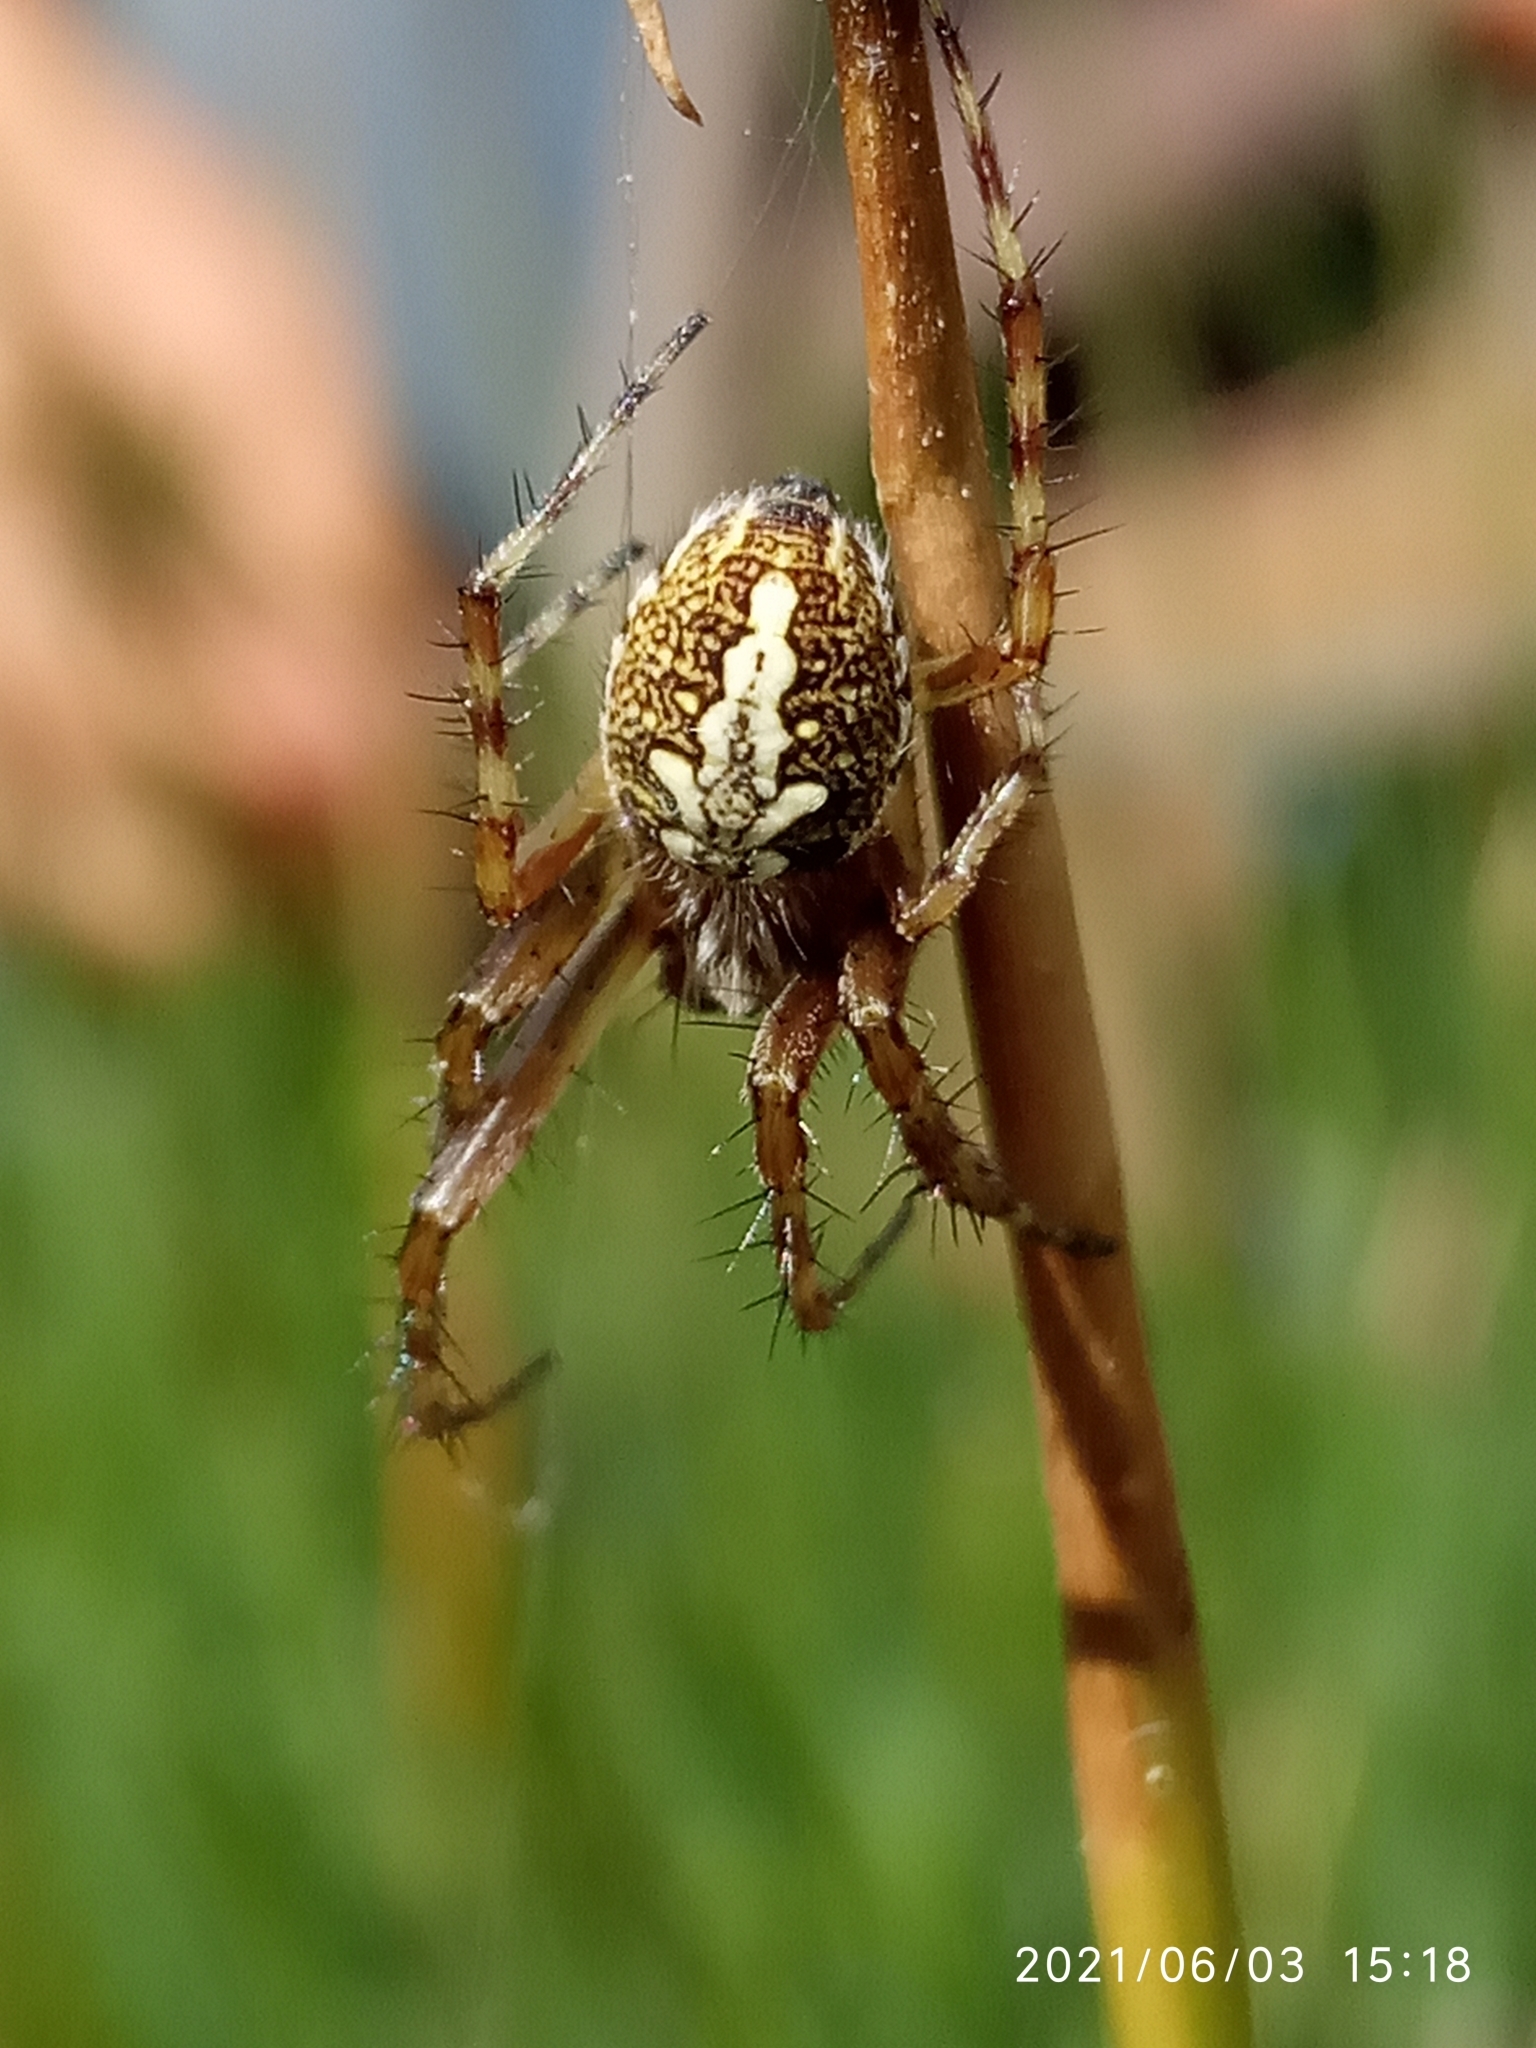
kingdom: Animalia
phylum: Arthropoda
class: Arachnida
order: Araneae
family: Araneidae
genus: Aculepeira
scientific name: Aculepeira ceropegia
